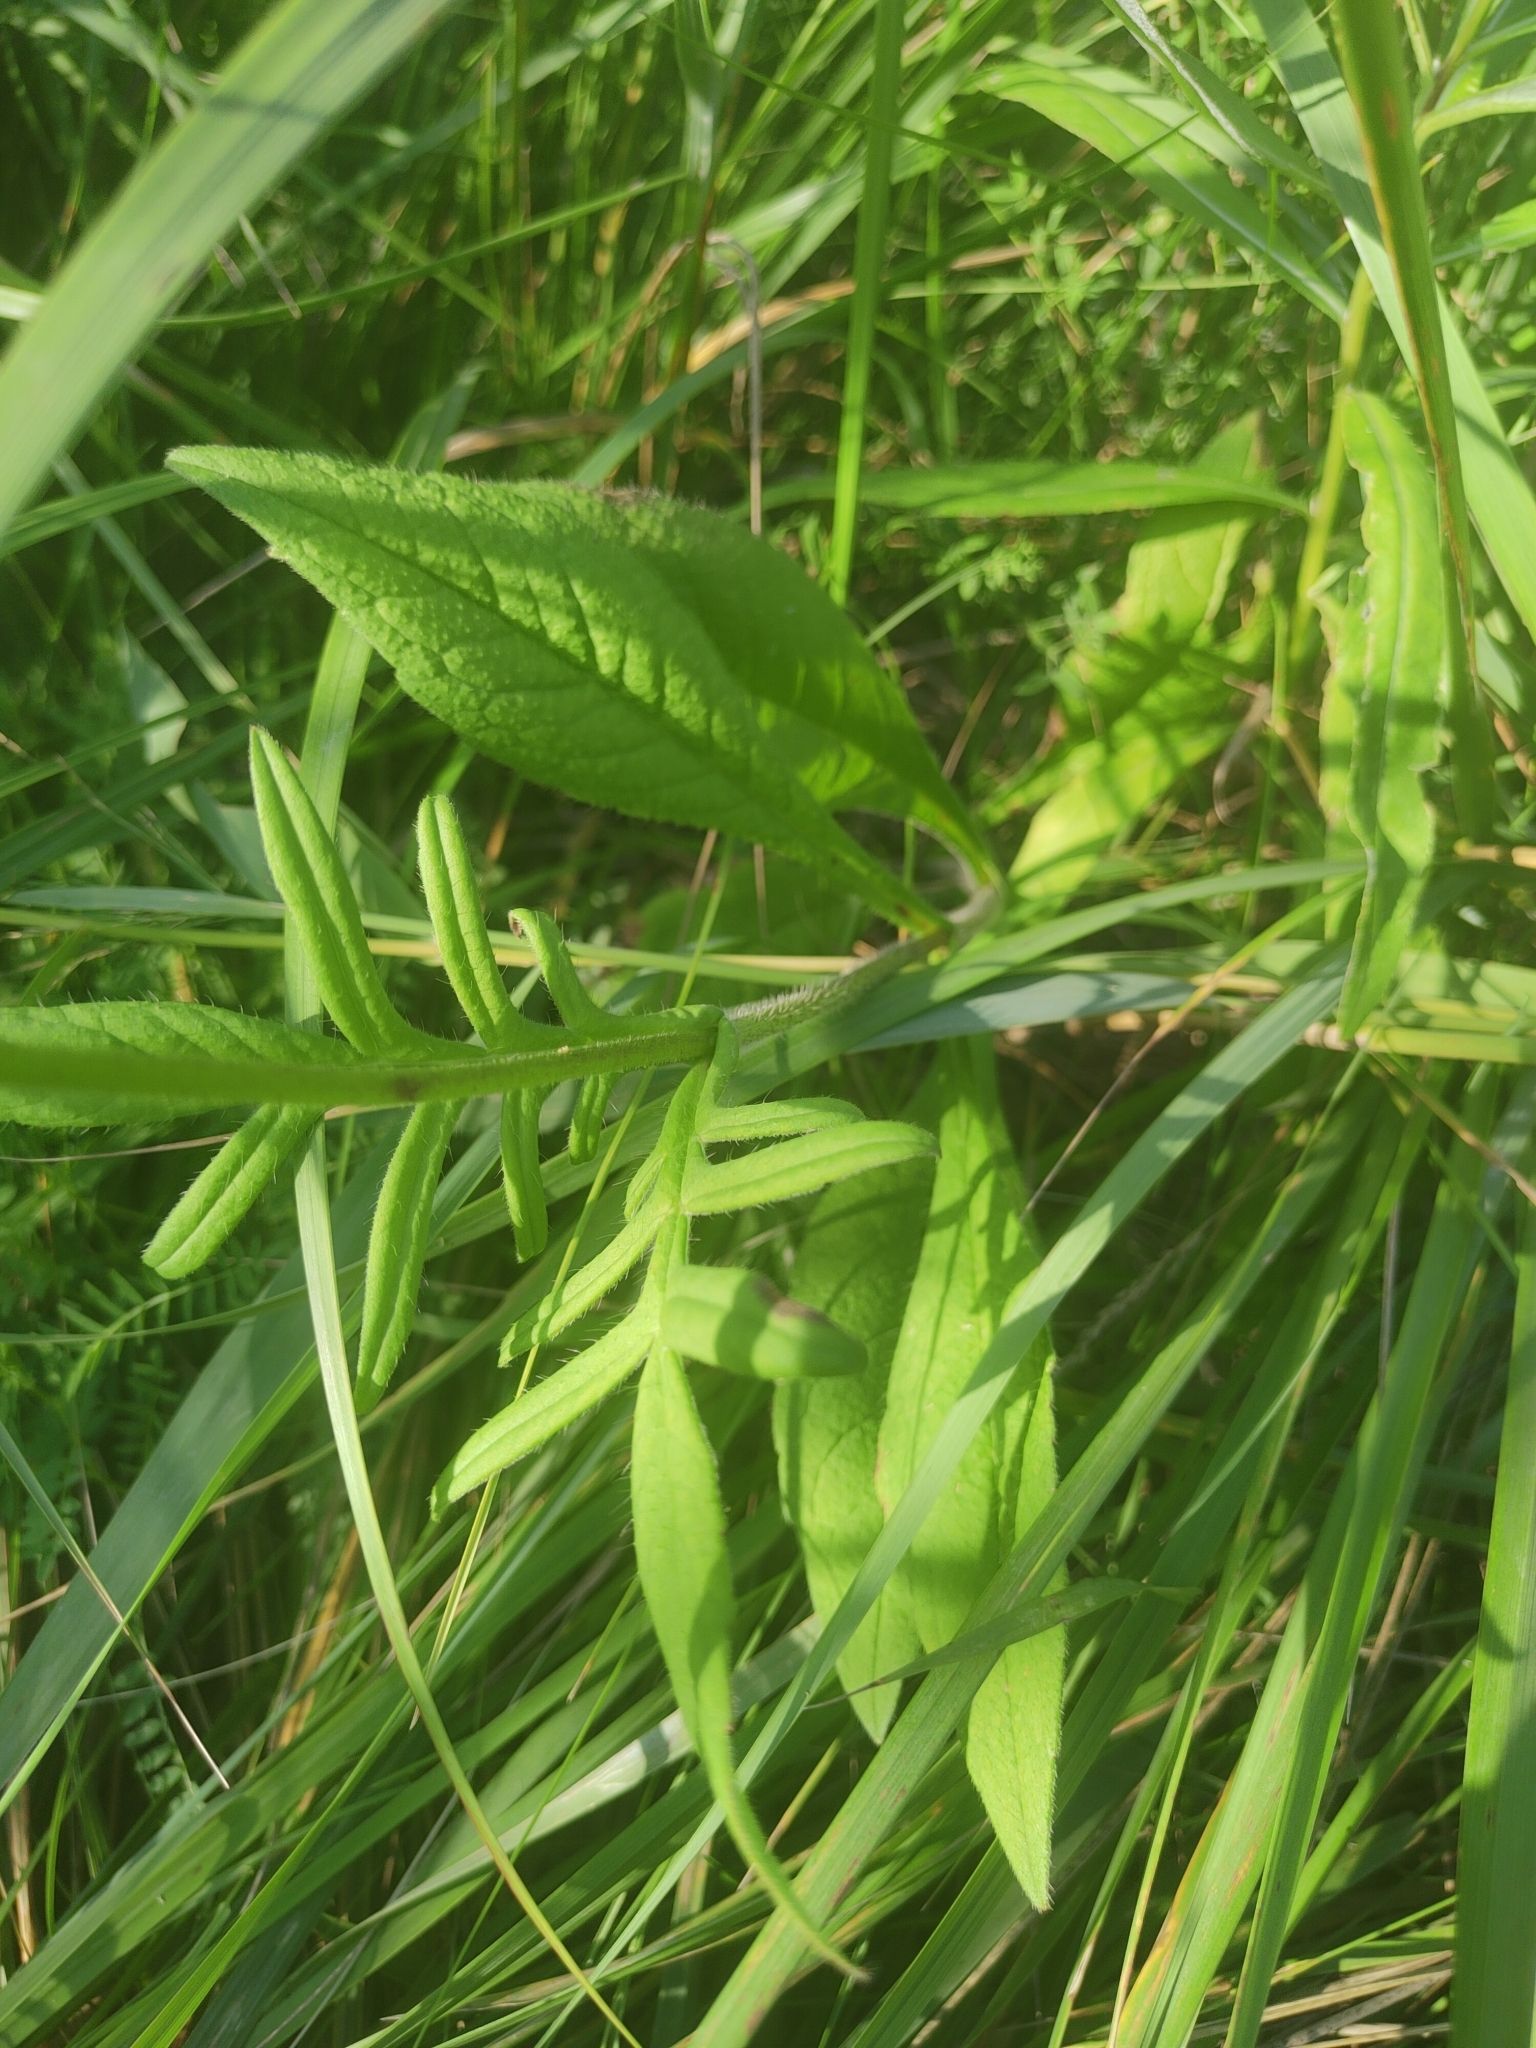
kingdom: Plantae
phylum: Tracheophyta
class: Magnoliopsida
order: Dipsacales
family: Caprifoliaceae
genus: Knautia
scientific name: Knautia arvensis
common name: Field scabiosa
